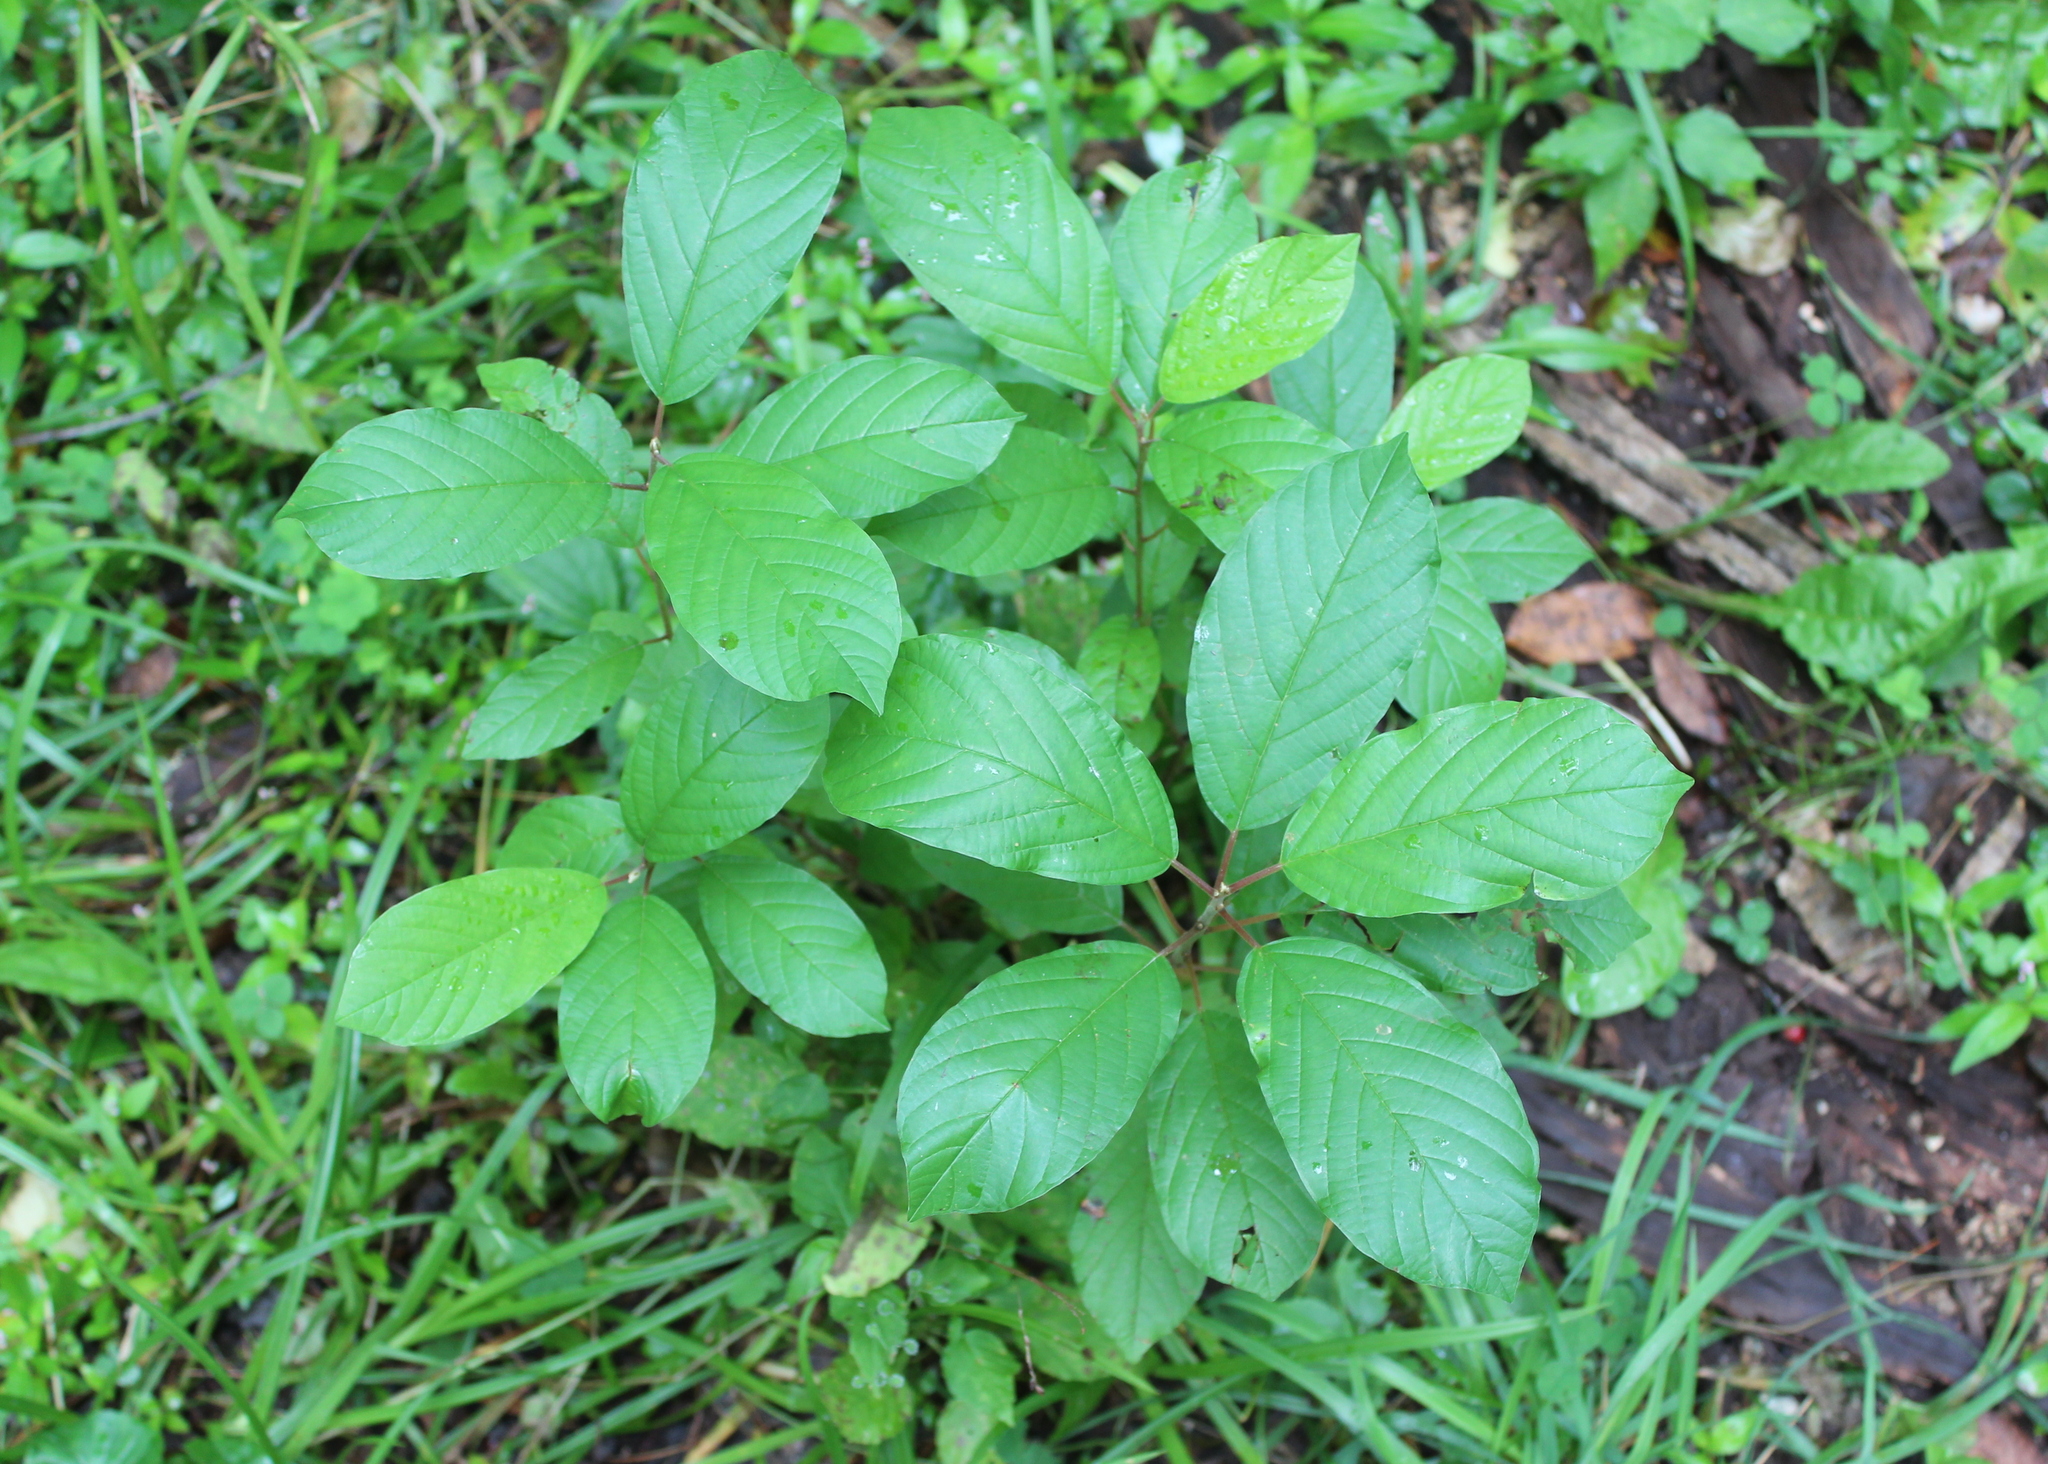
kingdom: Plantae
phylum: Tracheophyta
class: Magnoliopsida
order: Rosales
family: Rhamnaceae
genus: Frangula
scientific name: Frangula alnus
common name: Alder buckthorn
